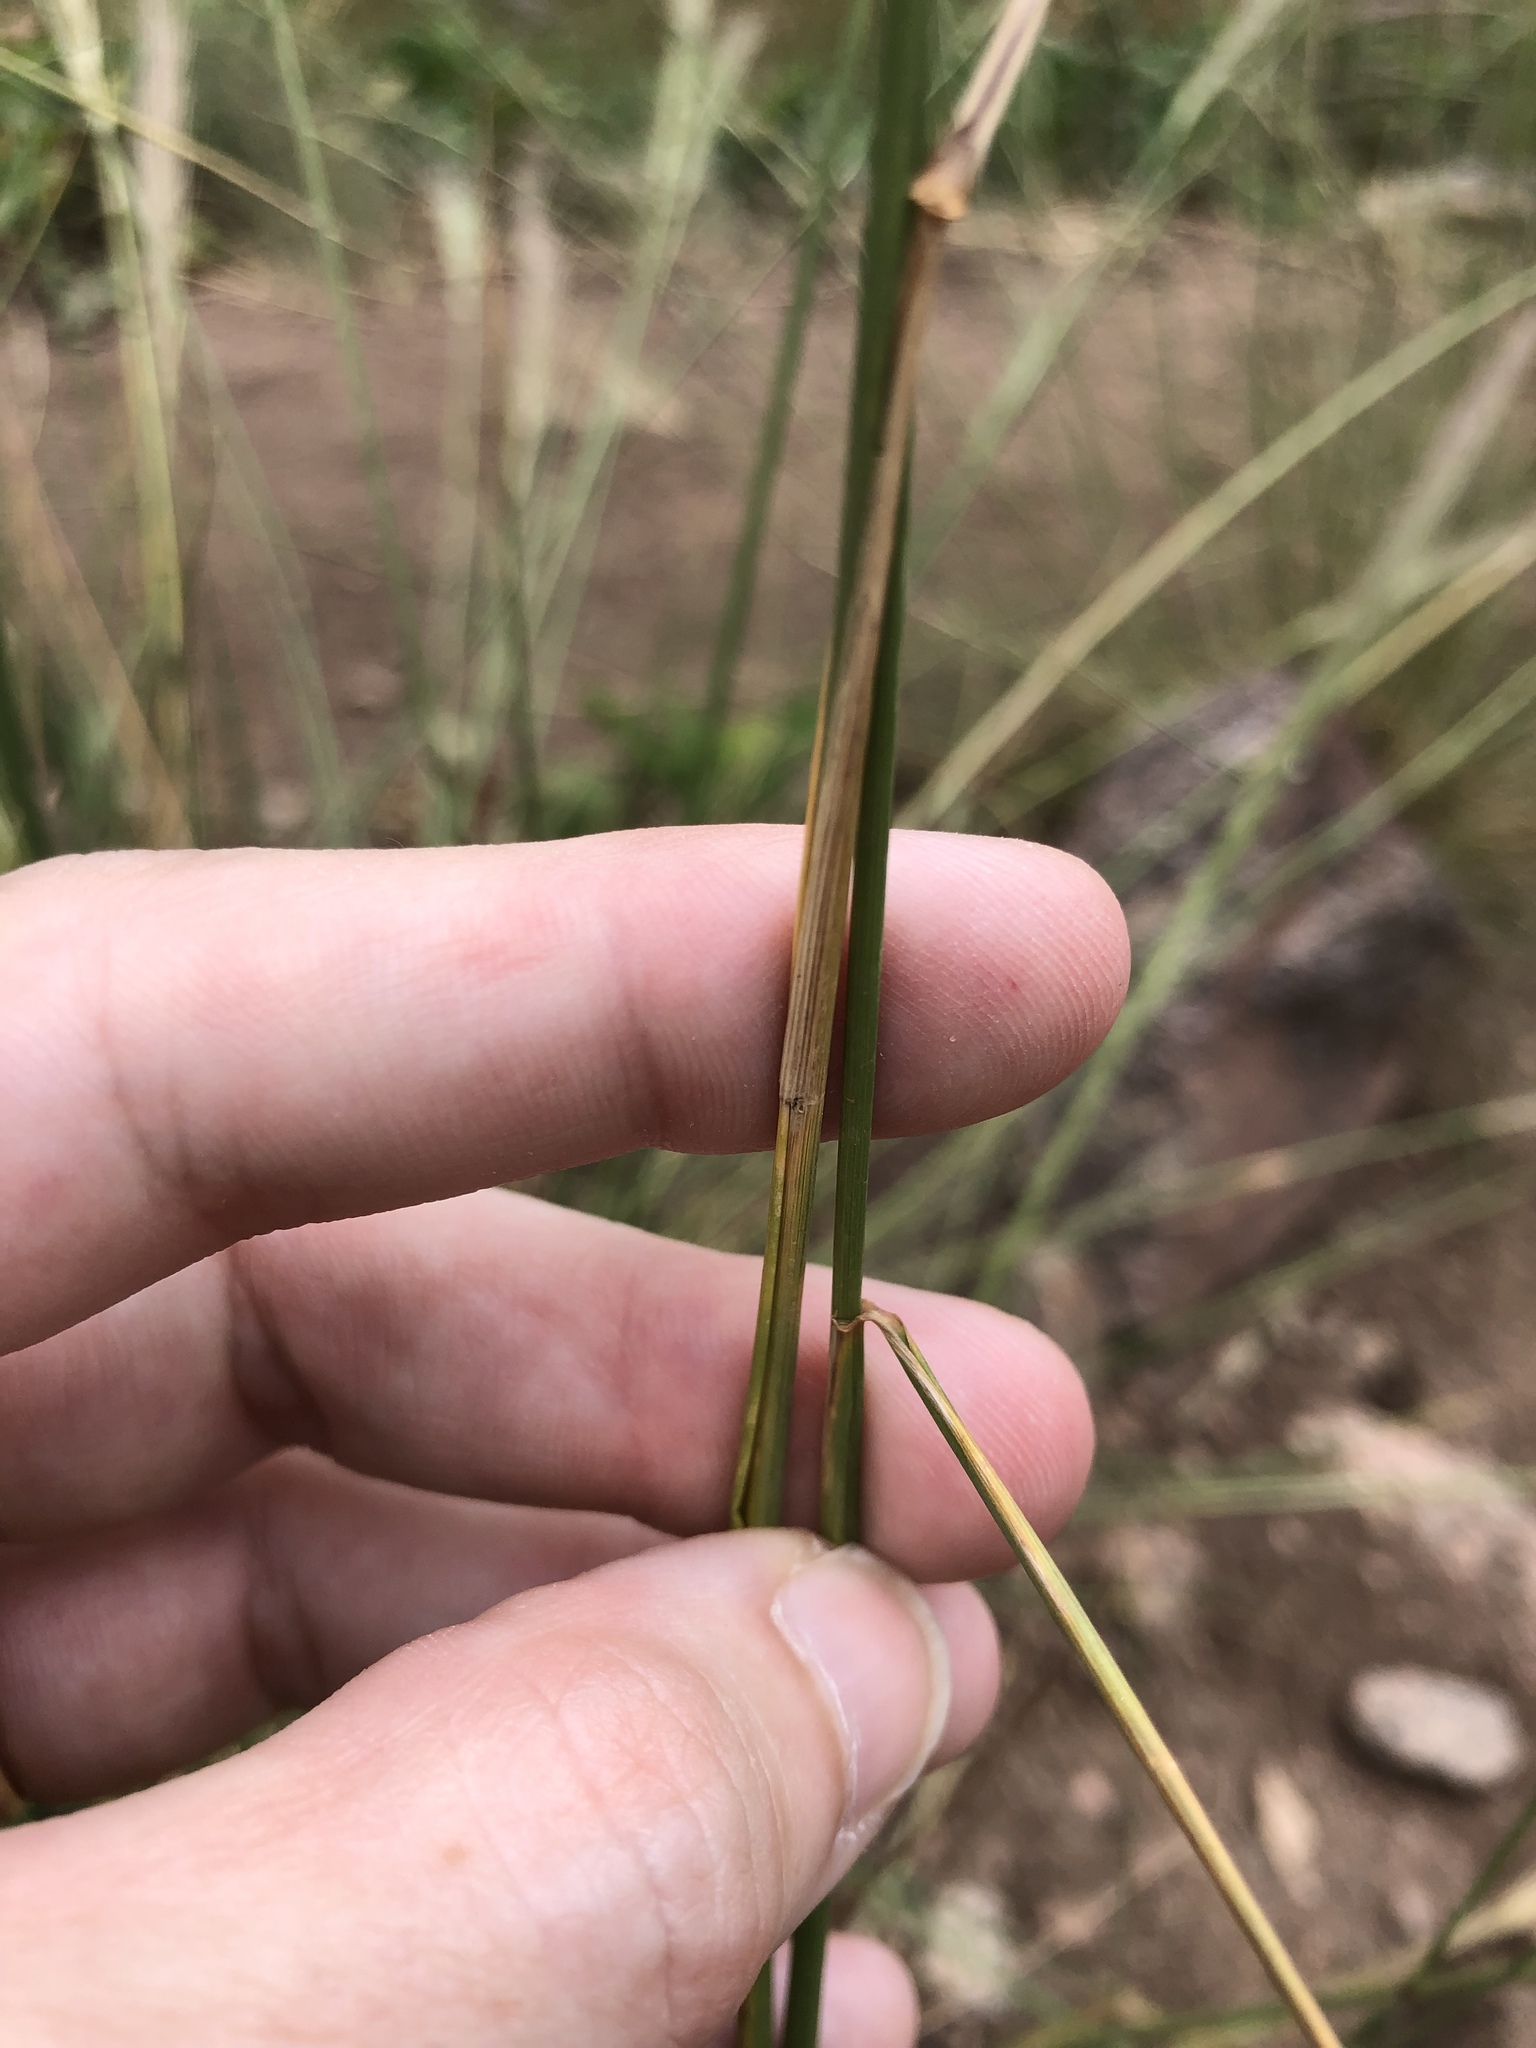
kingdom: Plantae
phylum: Tracheophyta
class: Liliopsida
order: Poales
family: Poaceae
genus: Elymus
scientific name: Elymus elymoides
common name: Bottlebrush squirreltail
